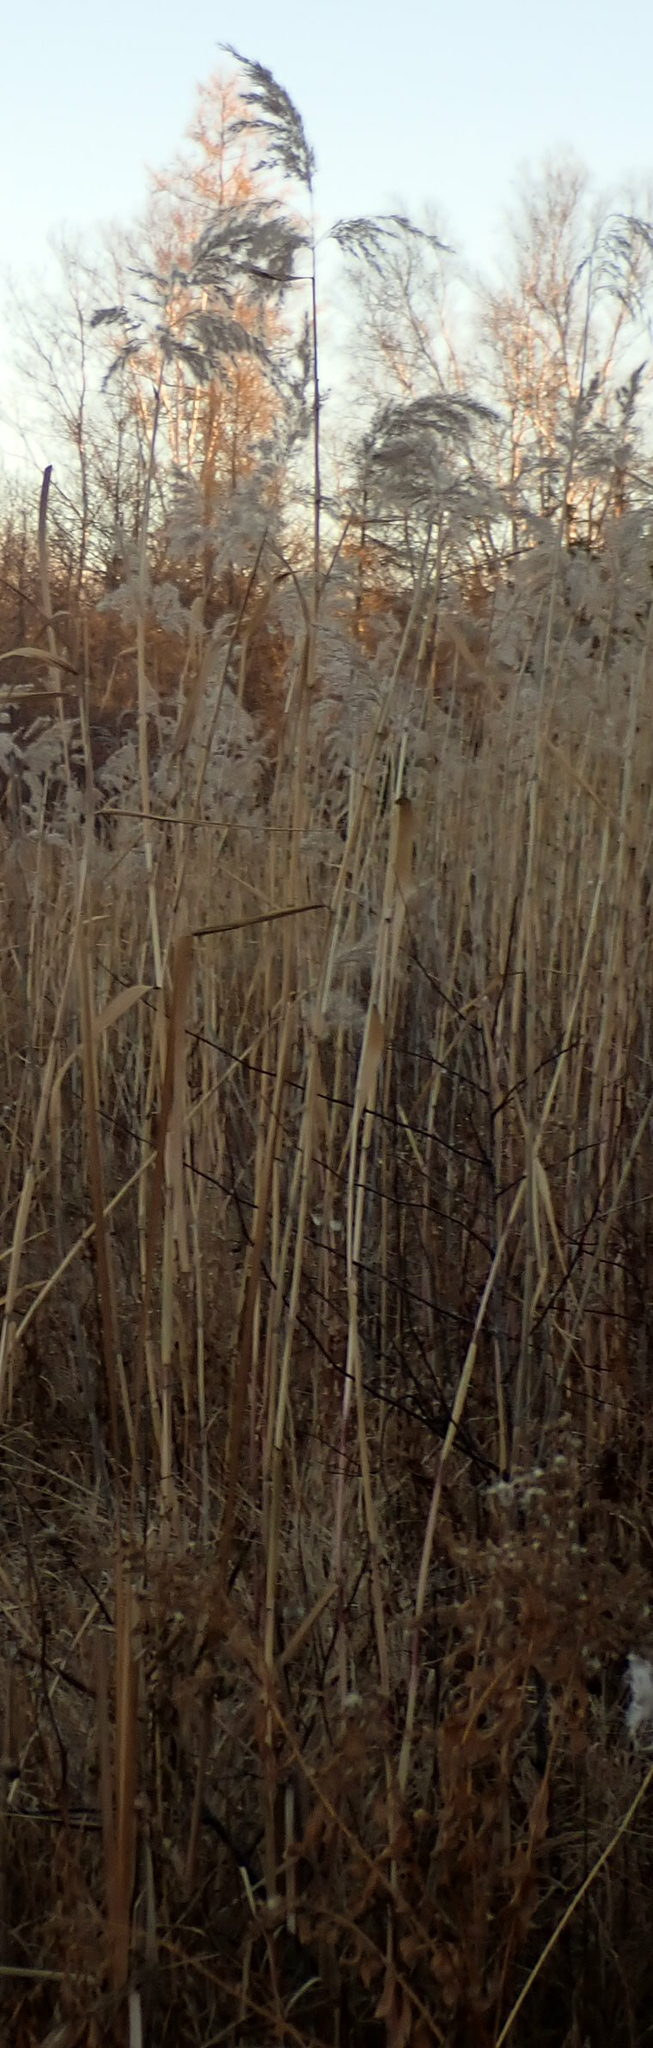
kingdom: Plantae
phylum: Tracheophyta
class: Liliopsida
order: Poales
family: Poaceae
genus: Phragmites
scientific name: Phragmites australis
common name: Common reed
